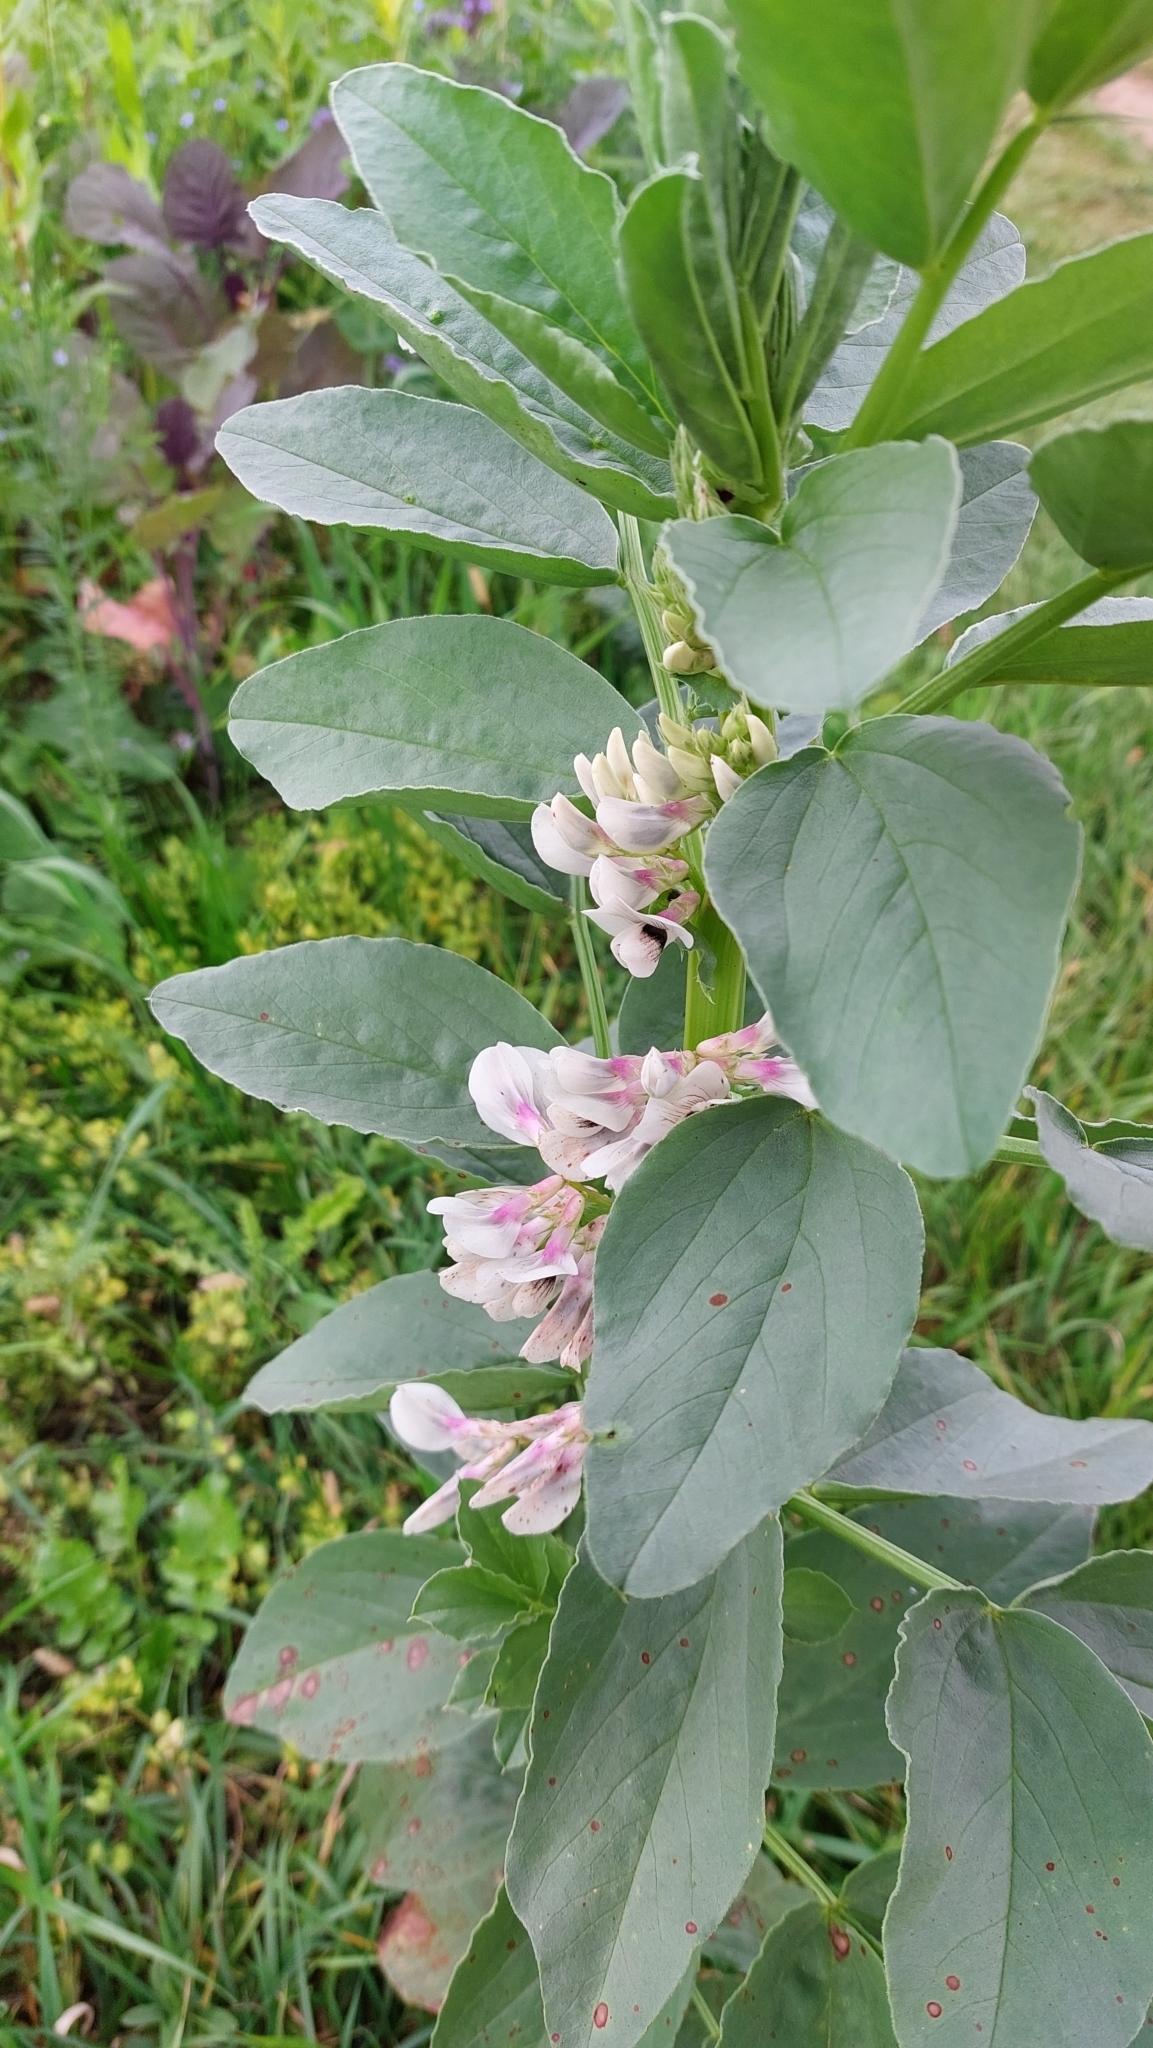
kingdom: Plantae
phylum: Tracheophyta
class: Magnoliopsida
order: Fabales
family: Fabaceae
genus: Vicia
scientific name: Vicia faba
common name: Broad bean
